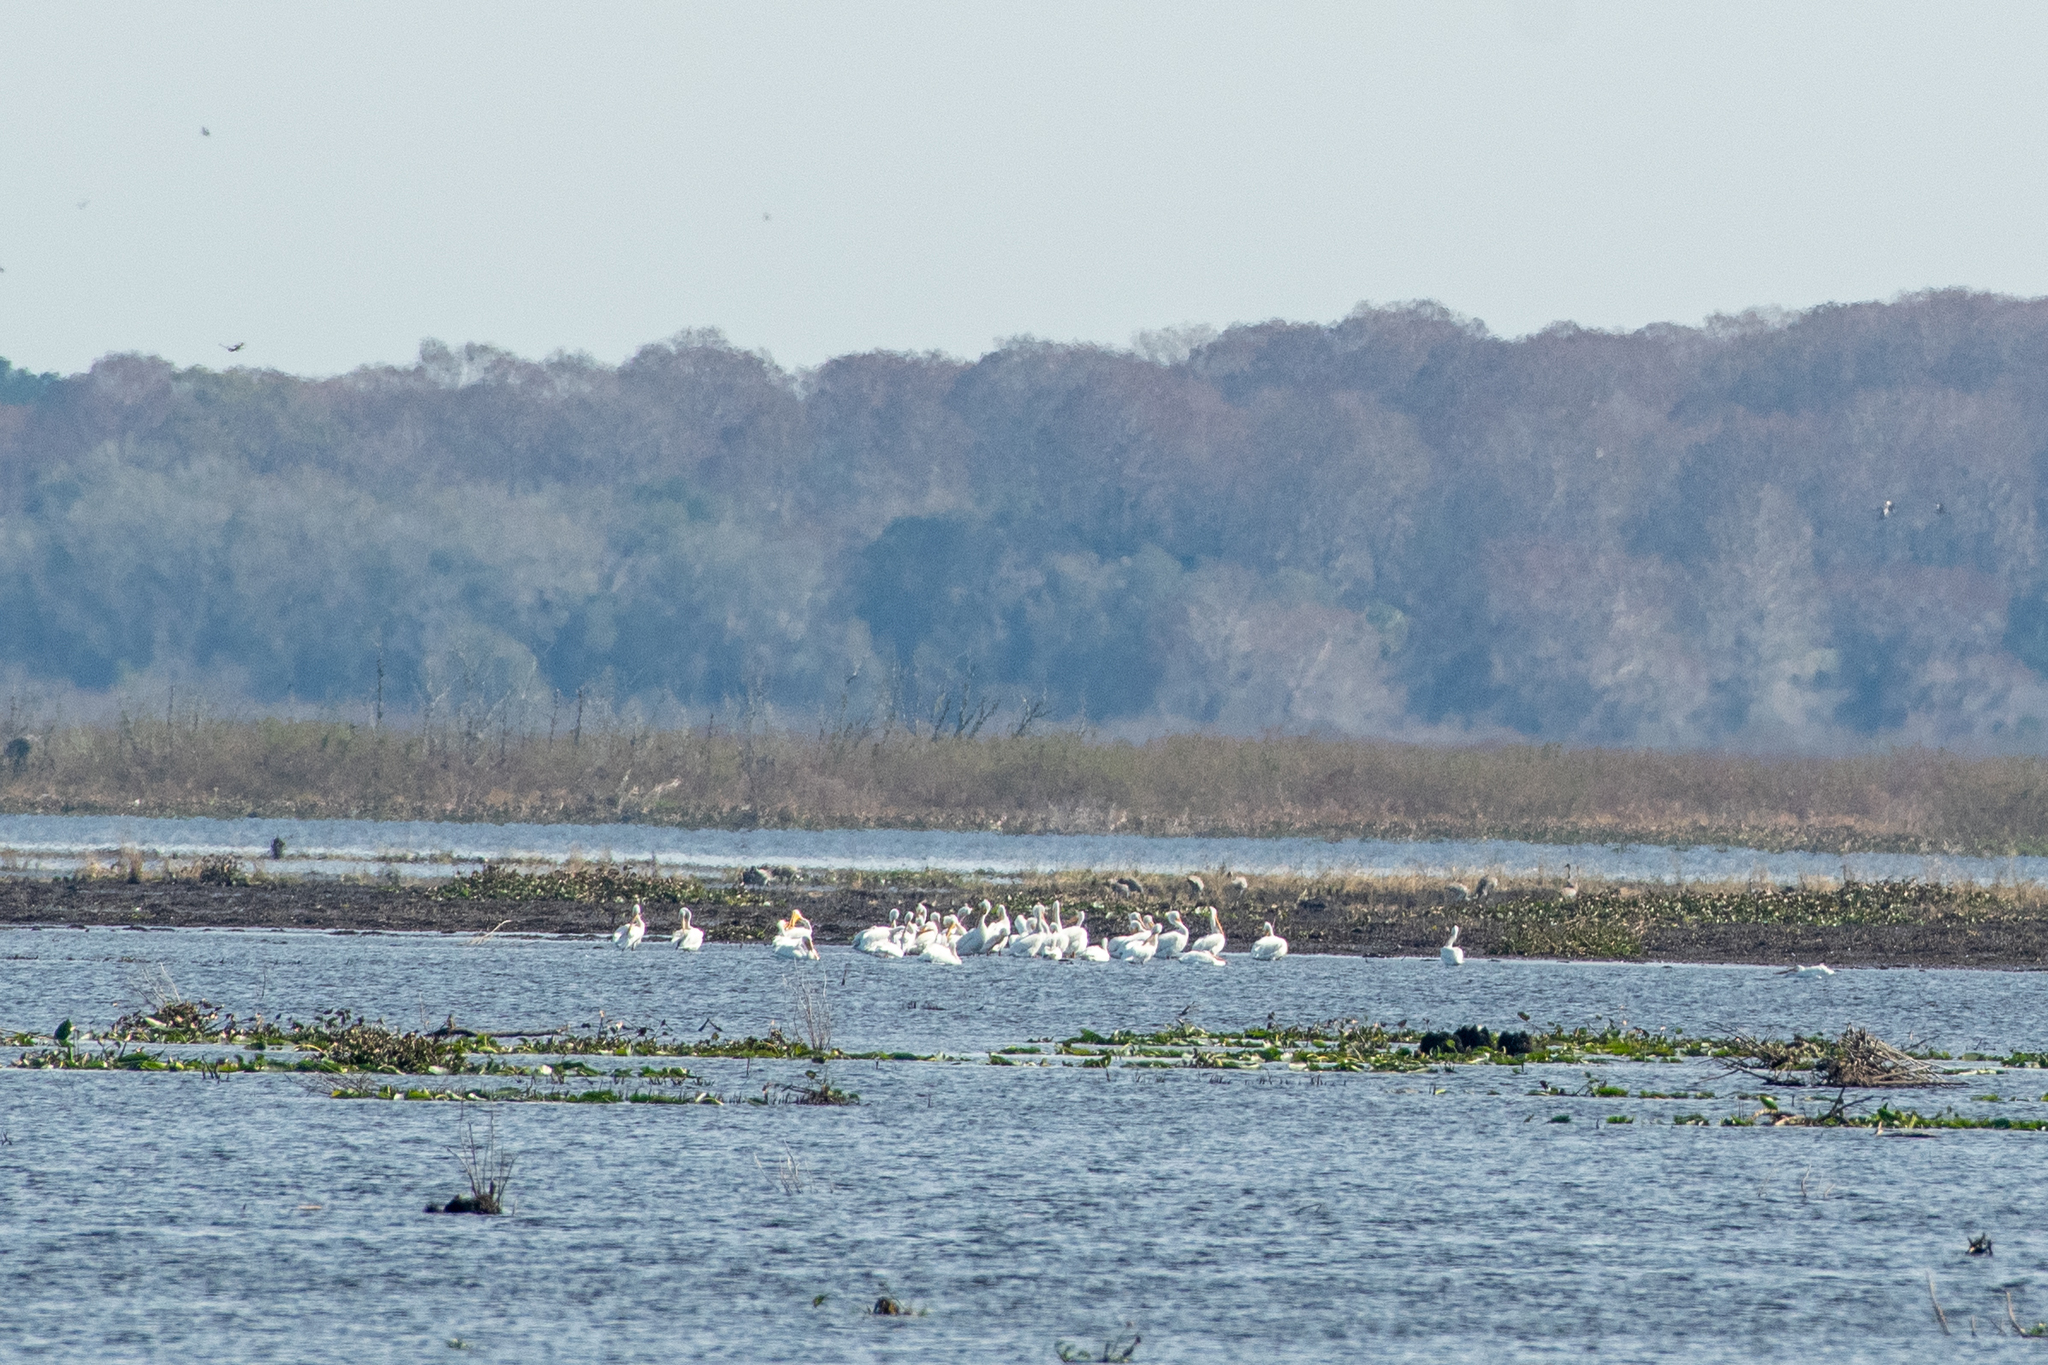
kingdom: Animalia
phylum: Chordata
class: Aves
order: Pelecaniformes
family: Pelecanidae
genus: Pelecanus
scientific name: Pelecanus erythrorhynchos
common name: American white pelican
